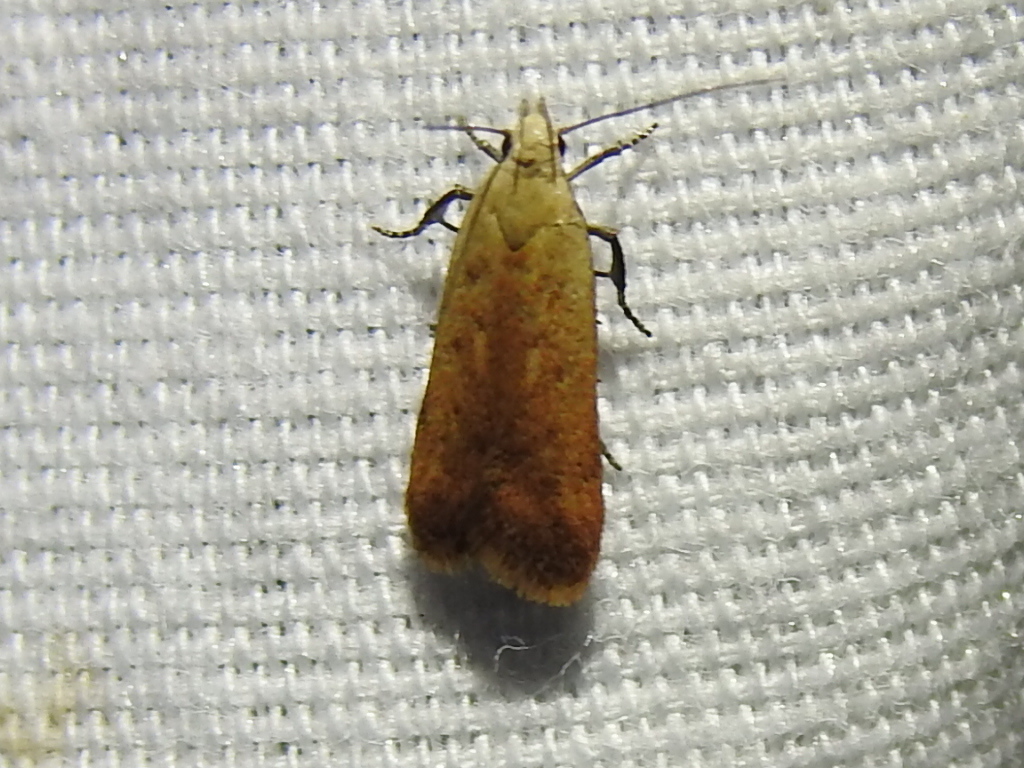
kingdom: Animalia
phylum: Arthropoda
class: Insecta
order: Lepidoptera
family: Gelechiidae
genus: Anacampsis
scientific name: Anacampsis fullonella
